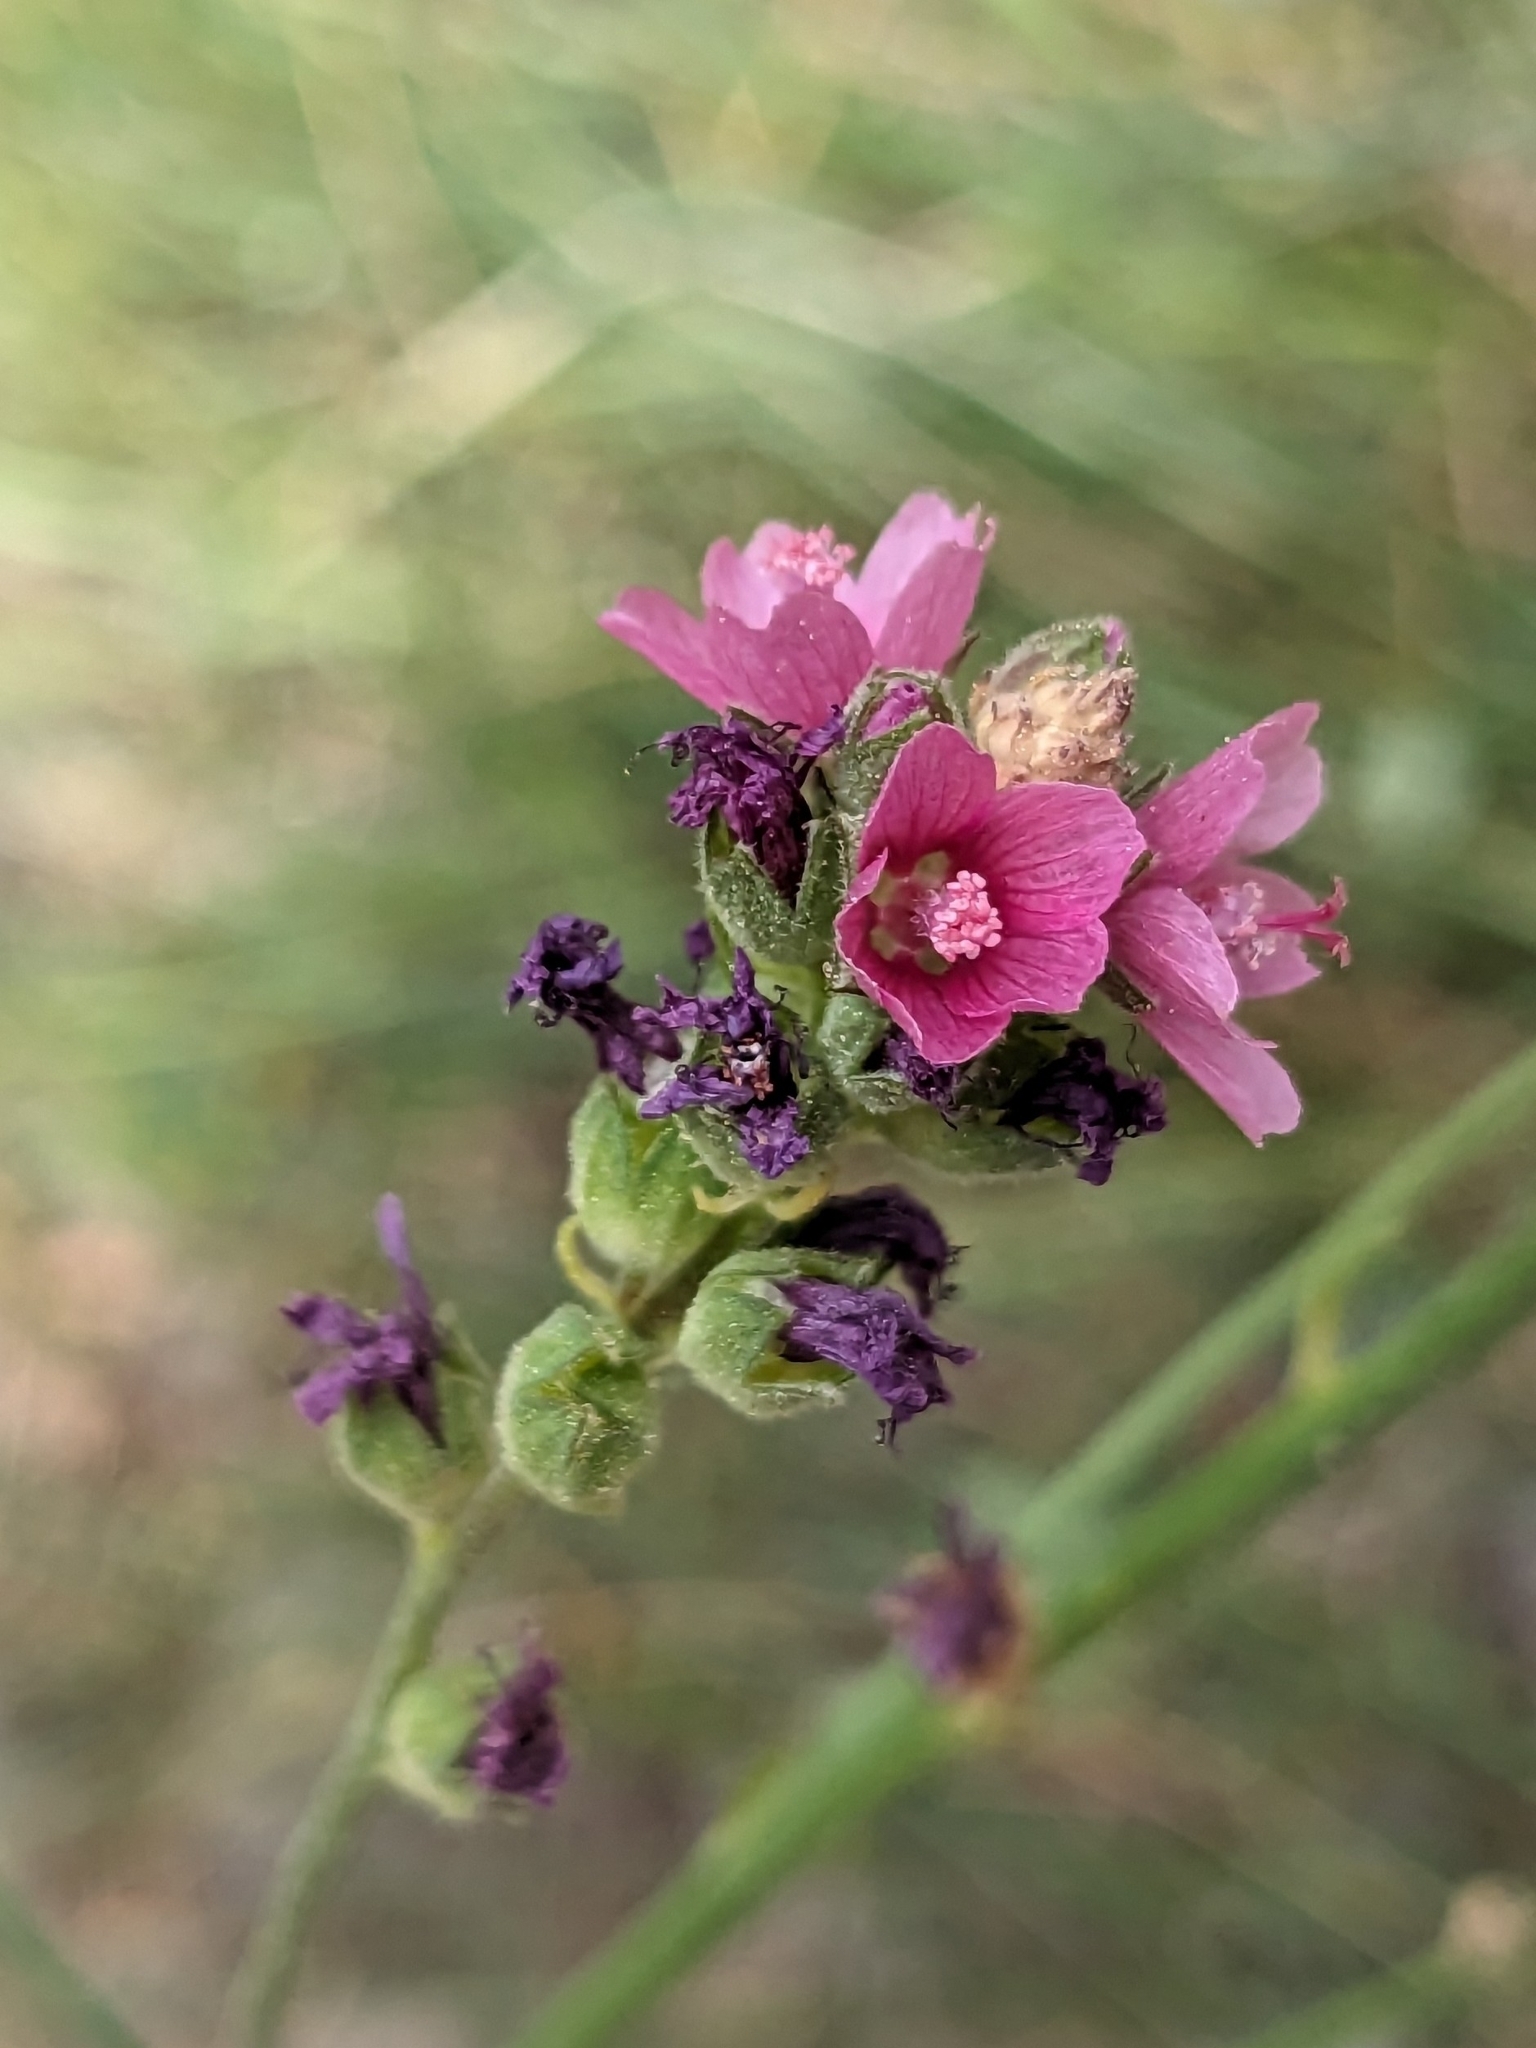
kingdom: Plantae
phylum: Tracheophyta
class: Magnoliopsida
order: Malvales
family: Malvaceae
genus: Sidalcea
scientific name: Sidalcea oregana
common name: Oregon checker-mallow
